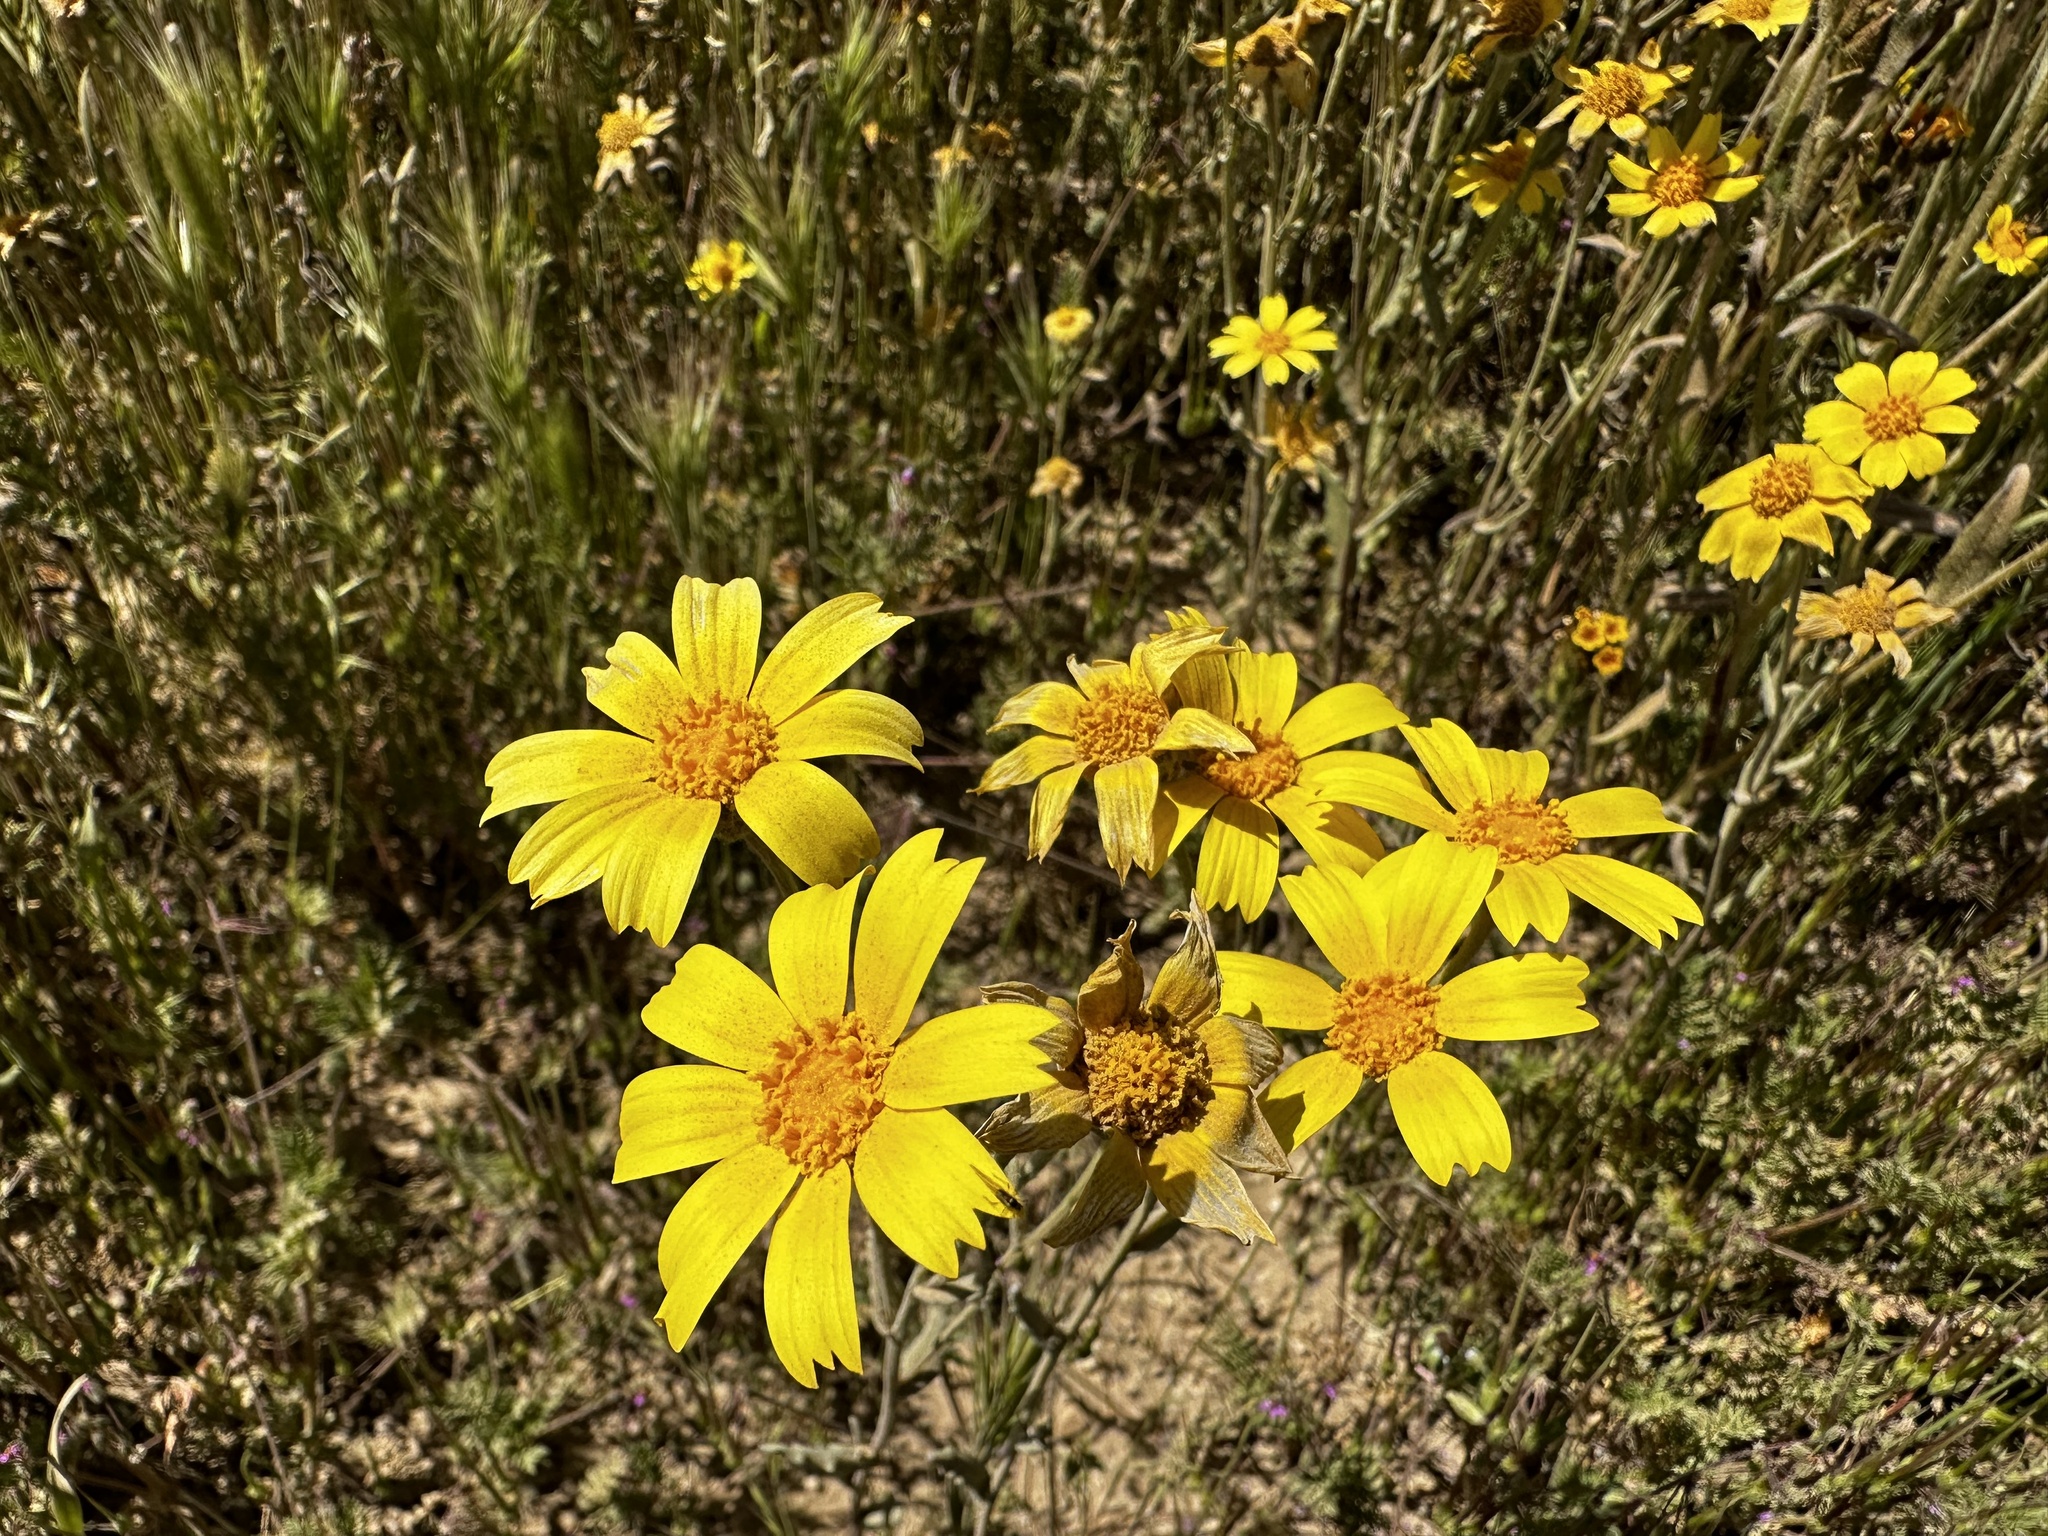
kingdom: Plantae
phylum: Tracheophyta
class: Magnoliopsida
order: Asterales
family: Asteraceae
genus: Monolopia
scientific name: Monolopia lanceolata
